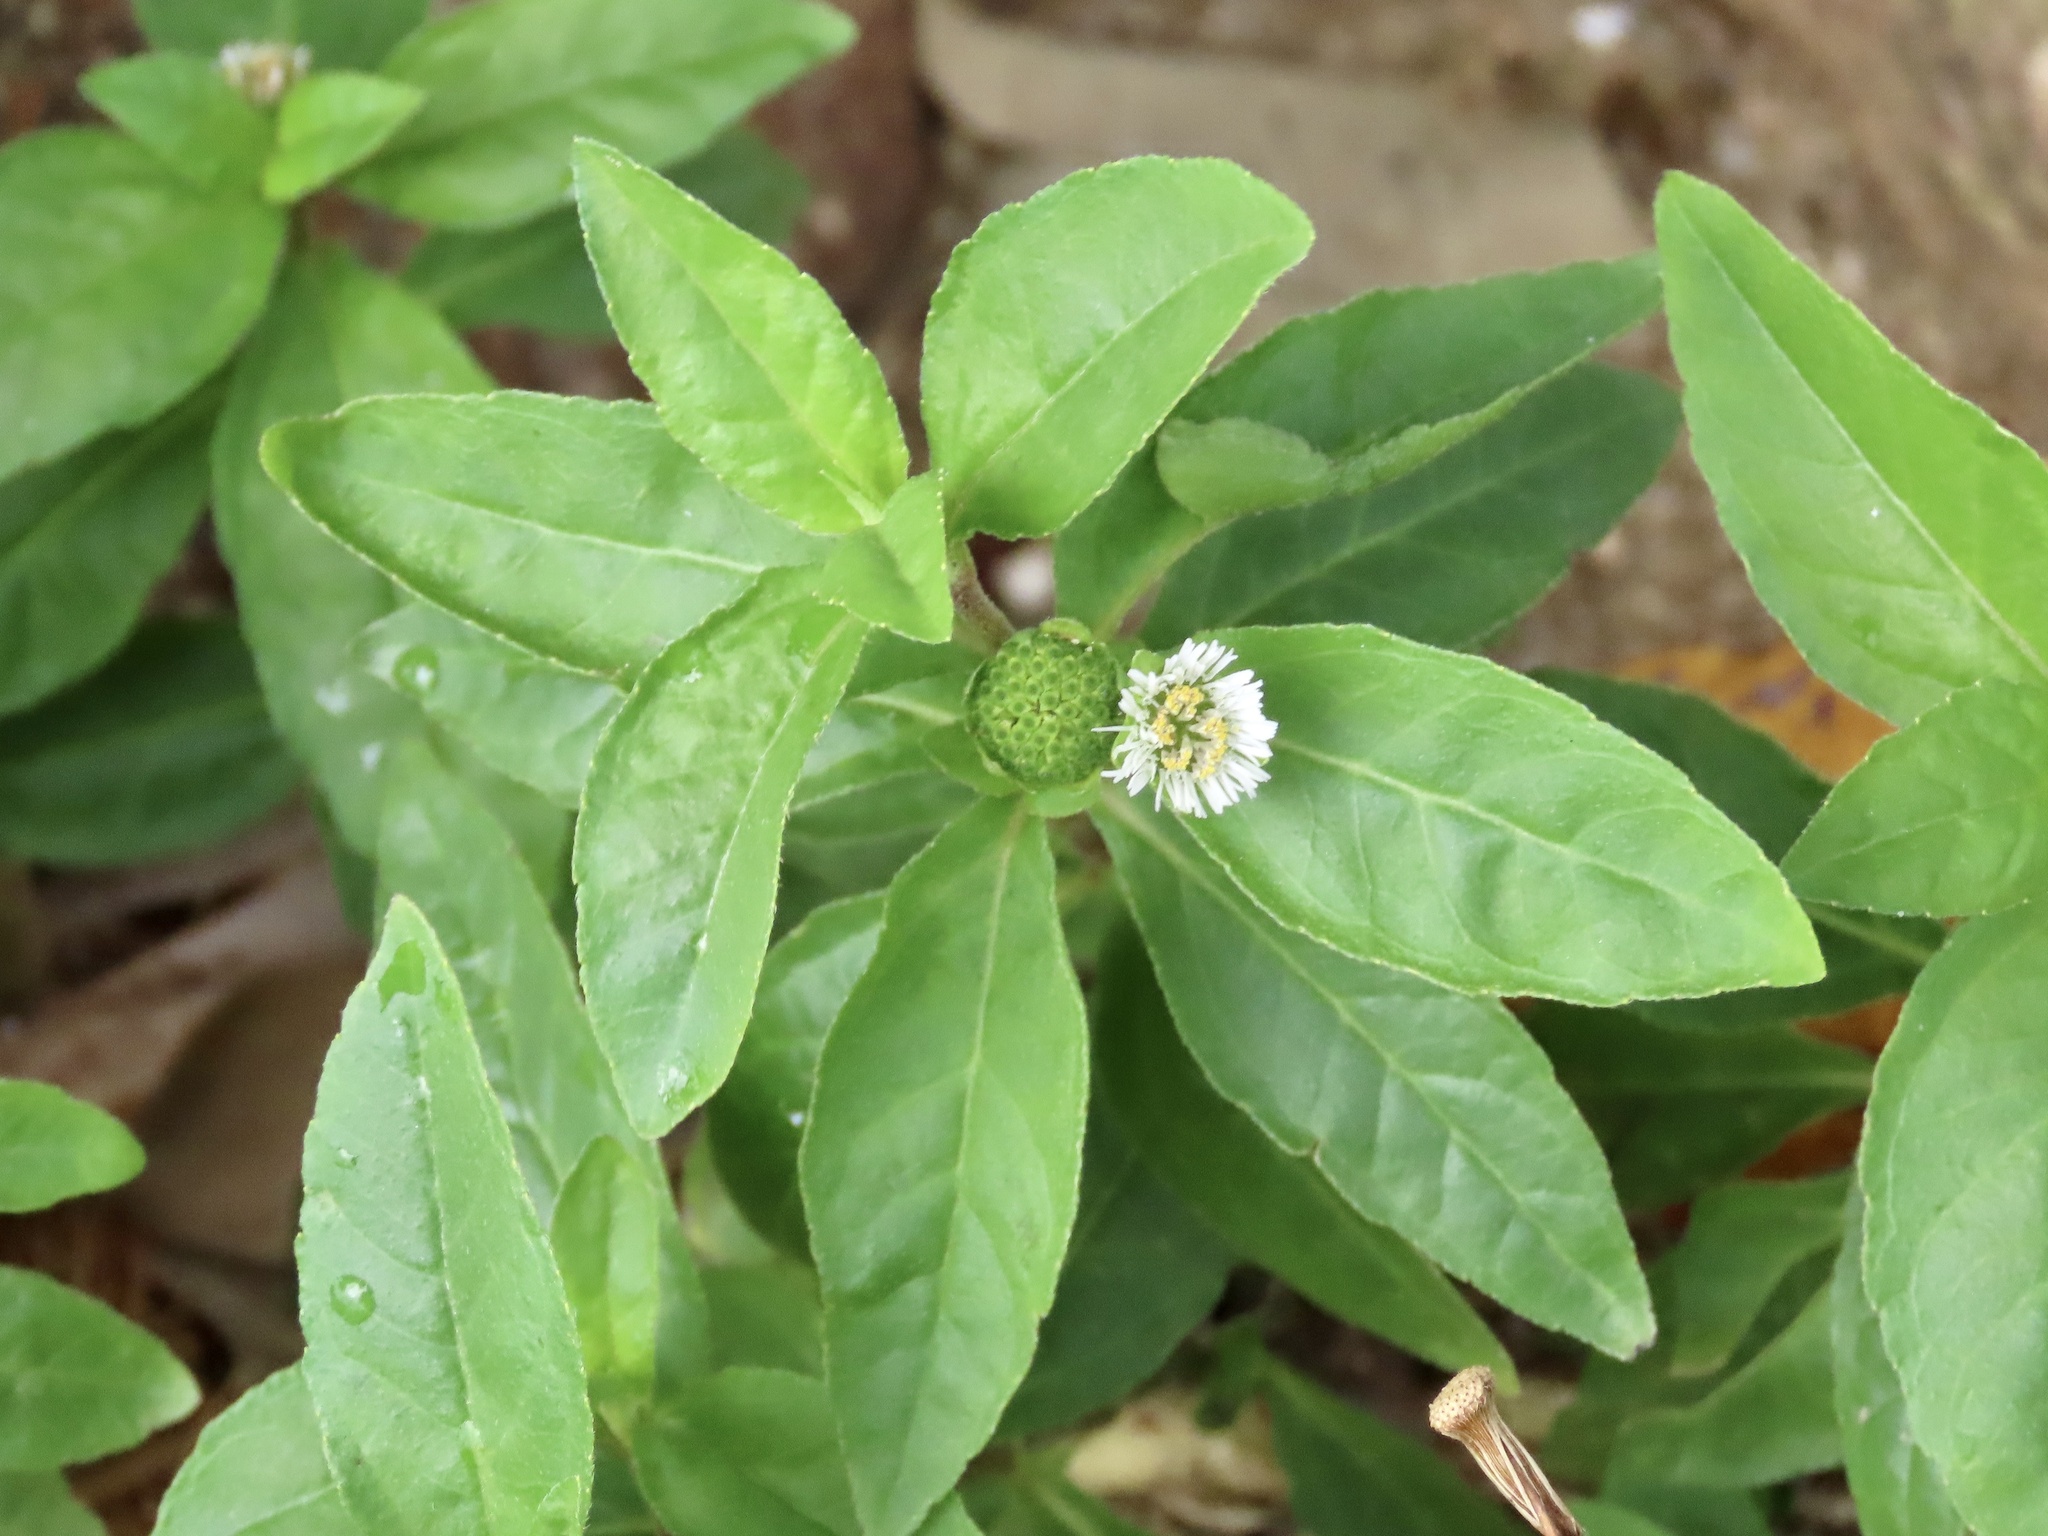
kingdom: Plantae
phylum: Tracheophyta
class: Magnoliopsida
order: Asterales
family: Asteraceae
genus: Eclipta
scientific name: Eclipta prostrata
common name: False daisy
